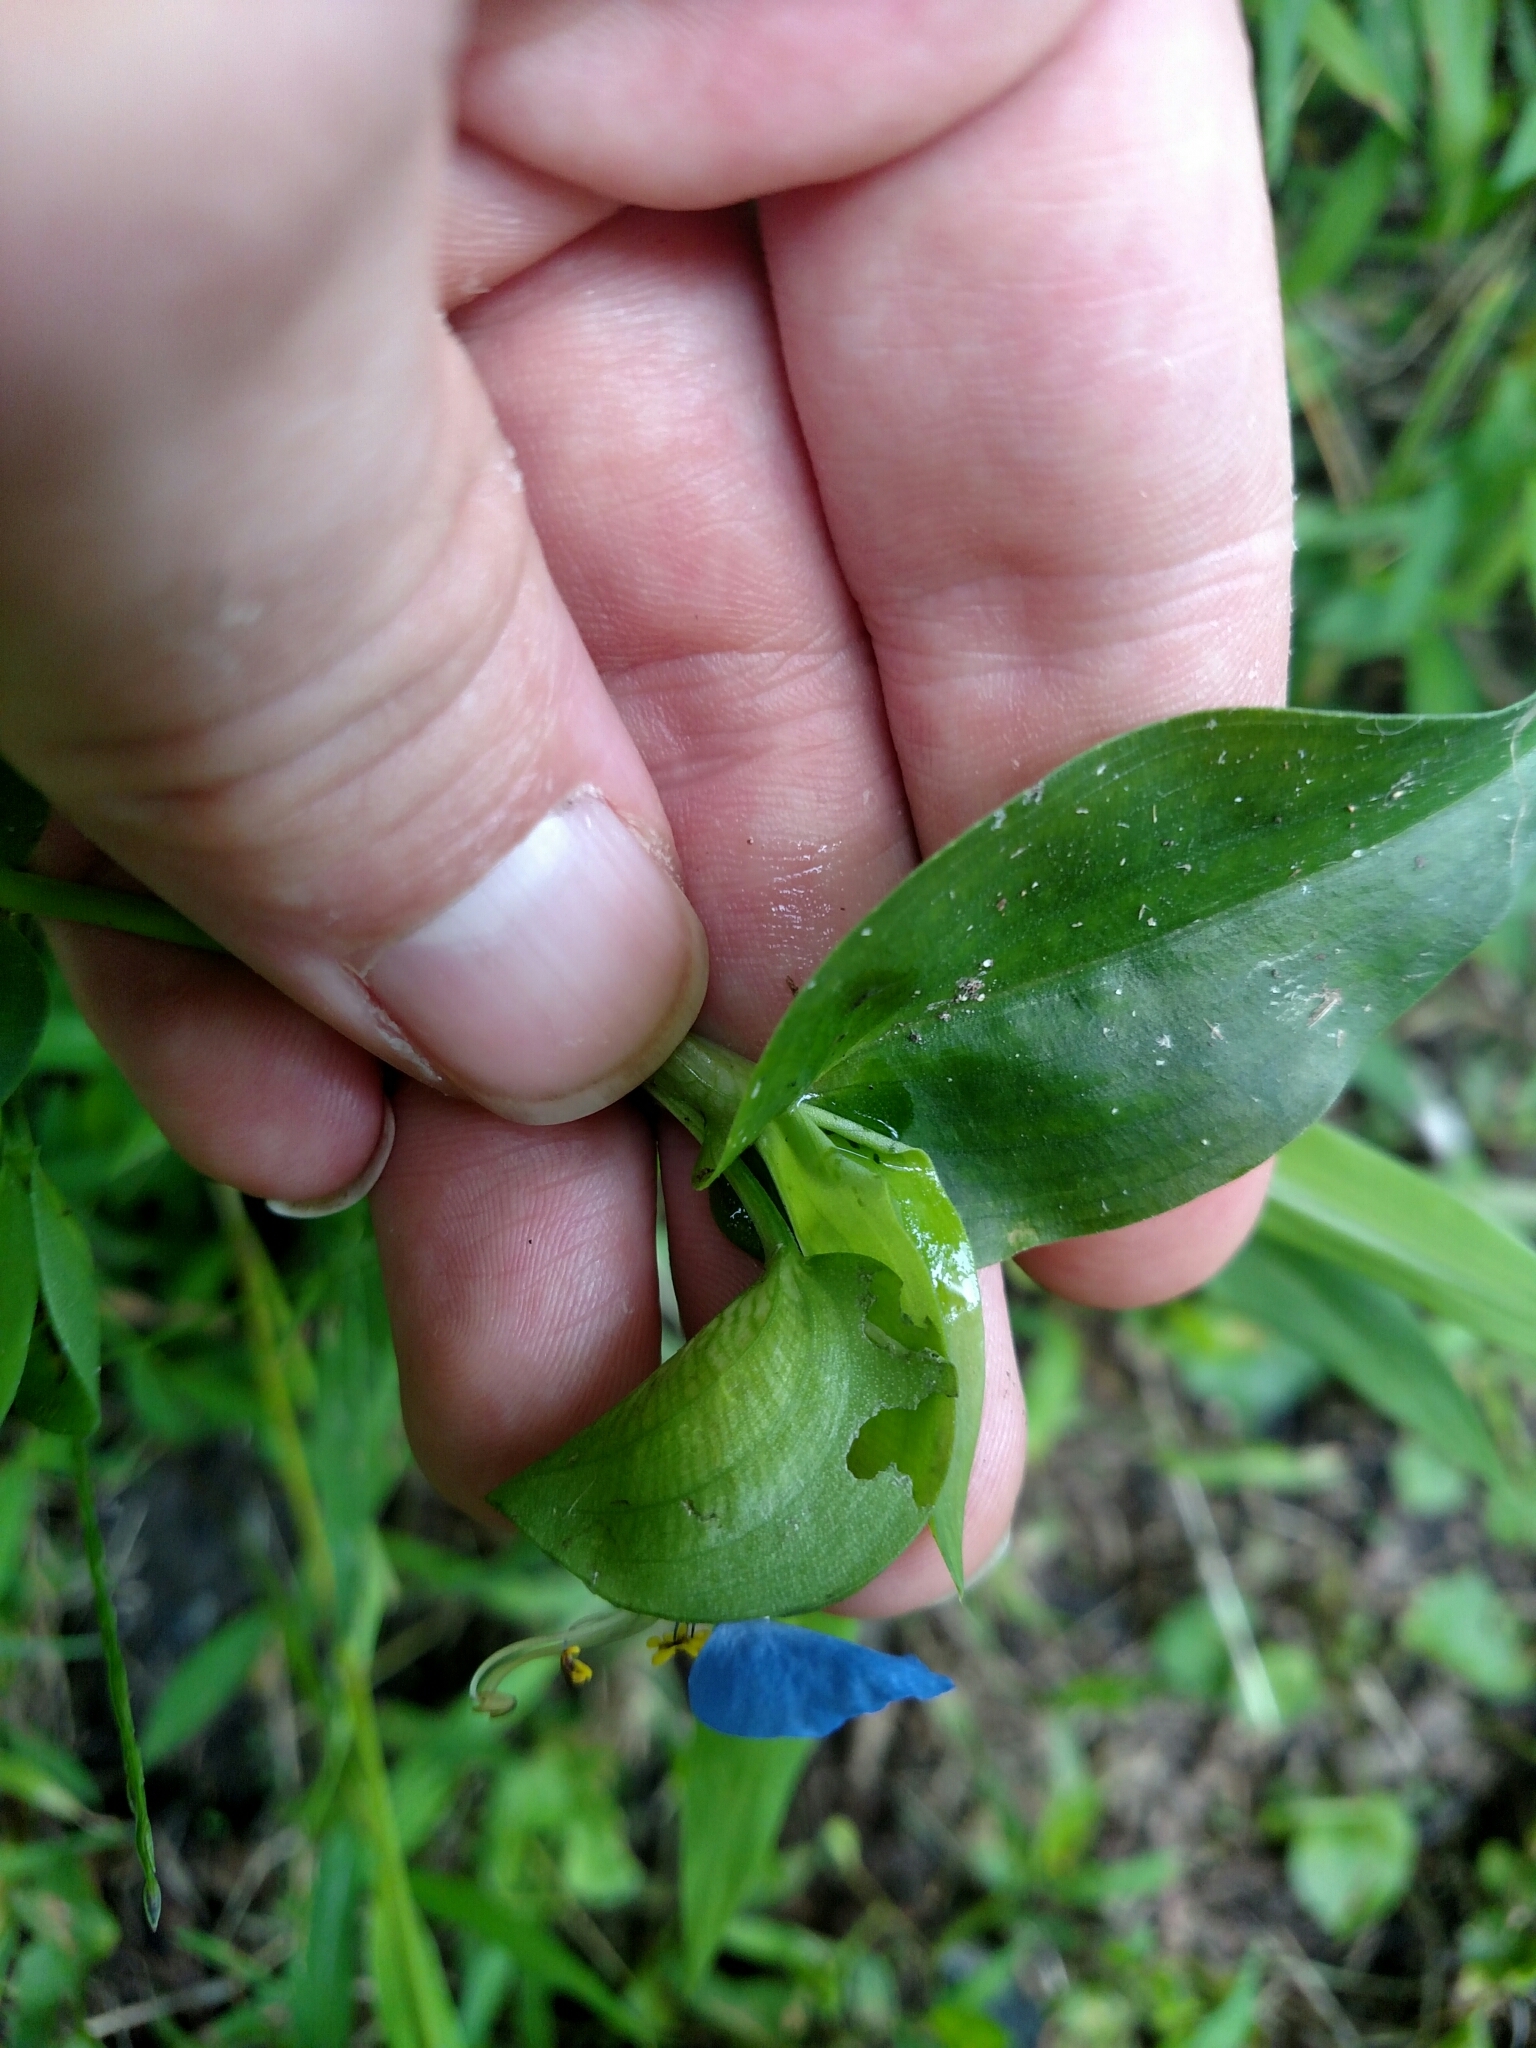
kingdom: Plantae
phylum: Tracheophyta
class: Liliopsida
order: Commelinales
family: Commelinaceae
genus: Commelina
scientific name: Commelina communis
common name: Asiatic dayflower
